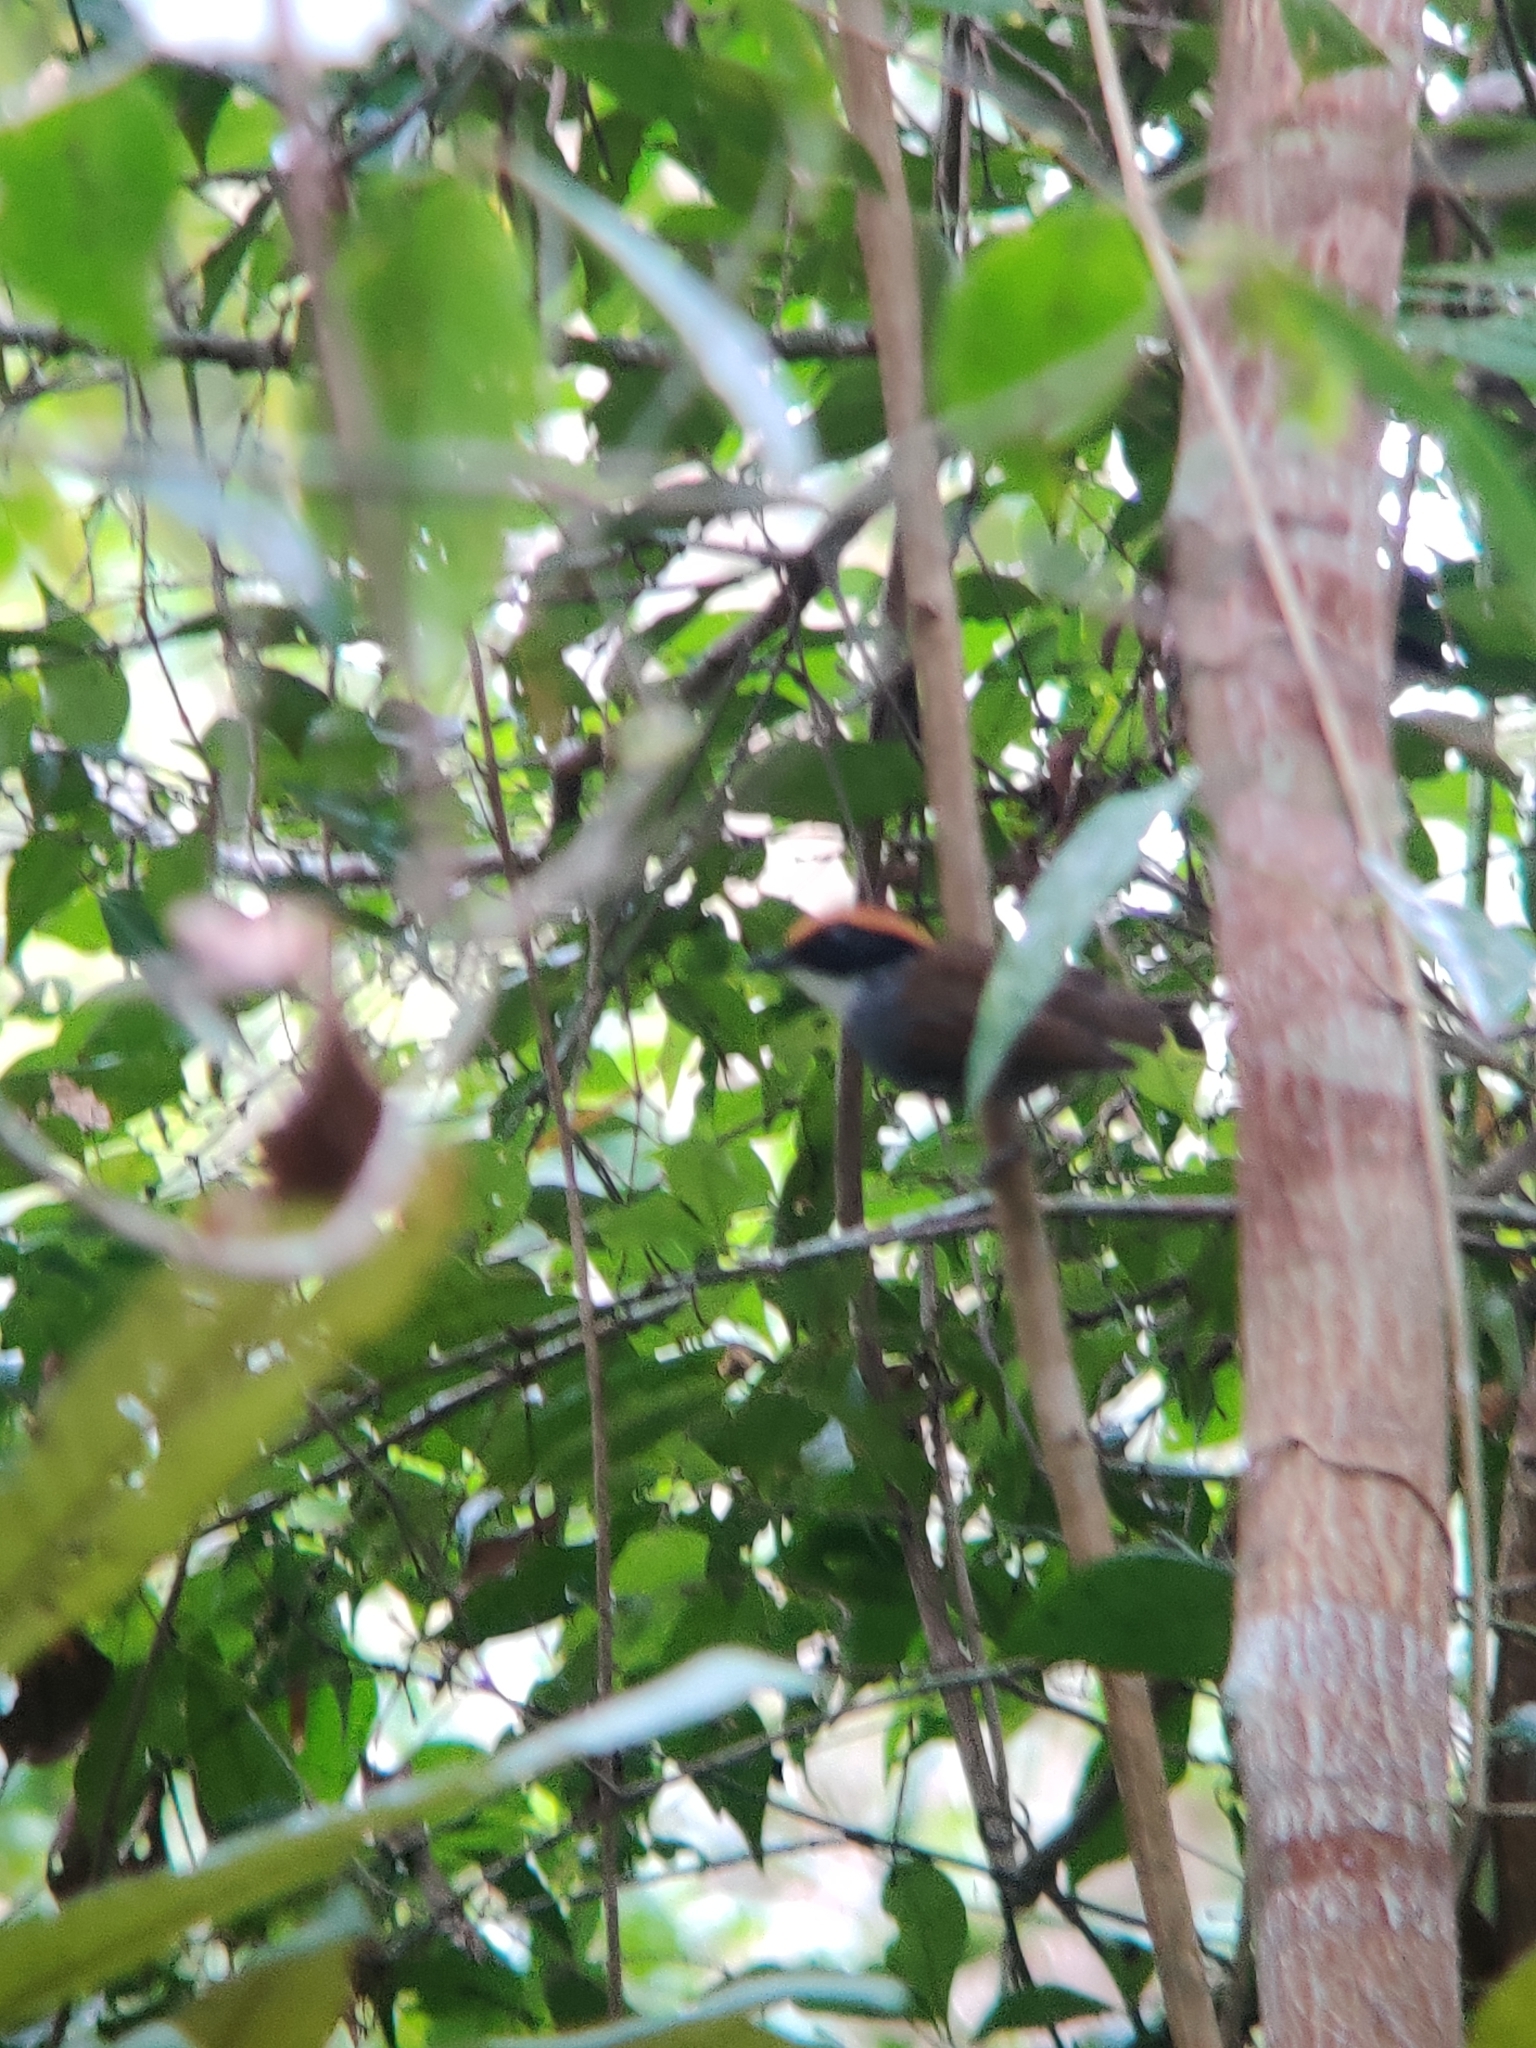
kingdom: Animalia
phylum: Chordata
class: Aves
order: Passeriformes
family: Conopophagidae
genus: Conopophaga
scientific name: Conopophaga melanops
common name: Black-cheeked gnateater
